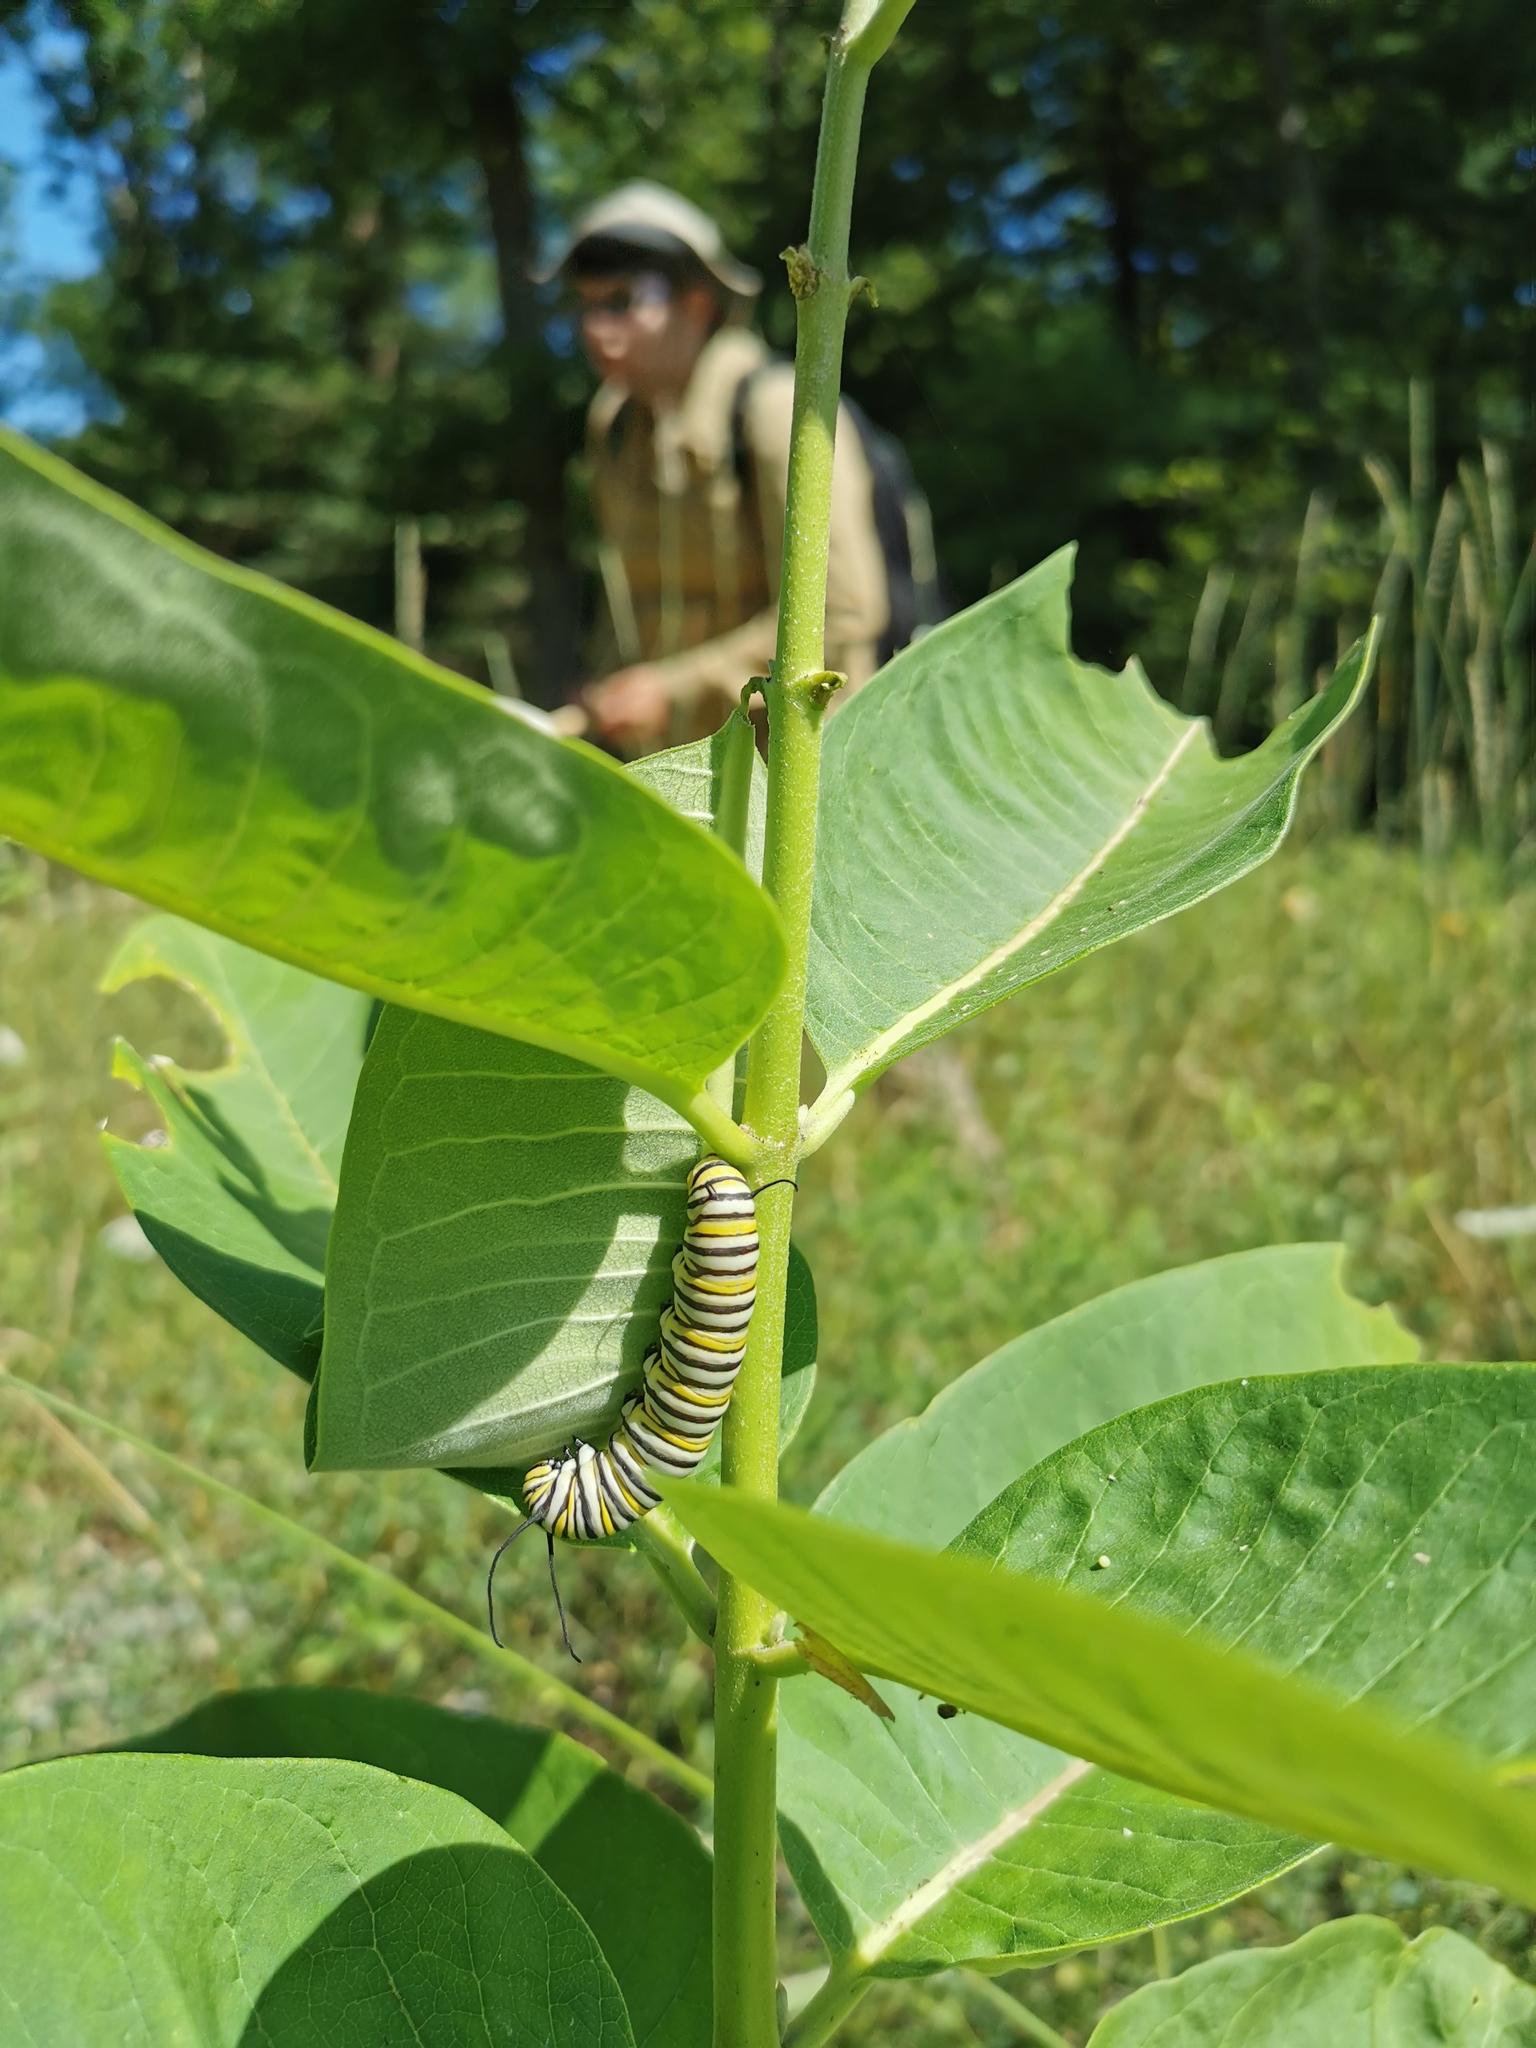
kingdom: Animalia
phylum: Arthropoda
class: Insecta
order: Lepidoptera
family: Nymphalidae
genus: Danaus
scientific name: Danaus plexippus
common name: Monarch
